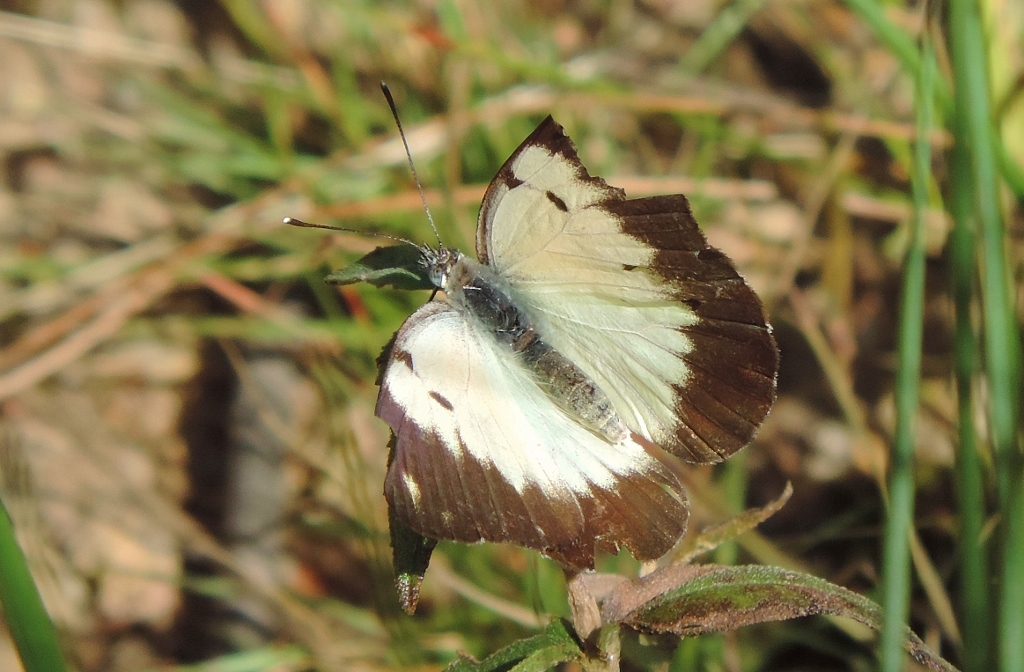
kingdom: Animalia
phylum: Arthropoda
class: Insecta
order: Lepidoptera
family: Pieridae
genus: Belenois
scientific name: Belenois creona
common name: African caper white
